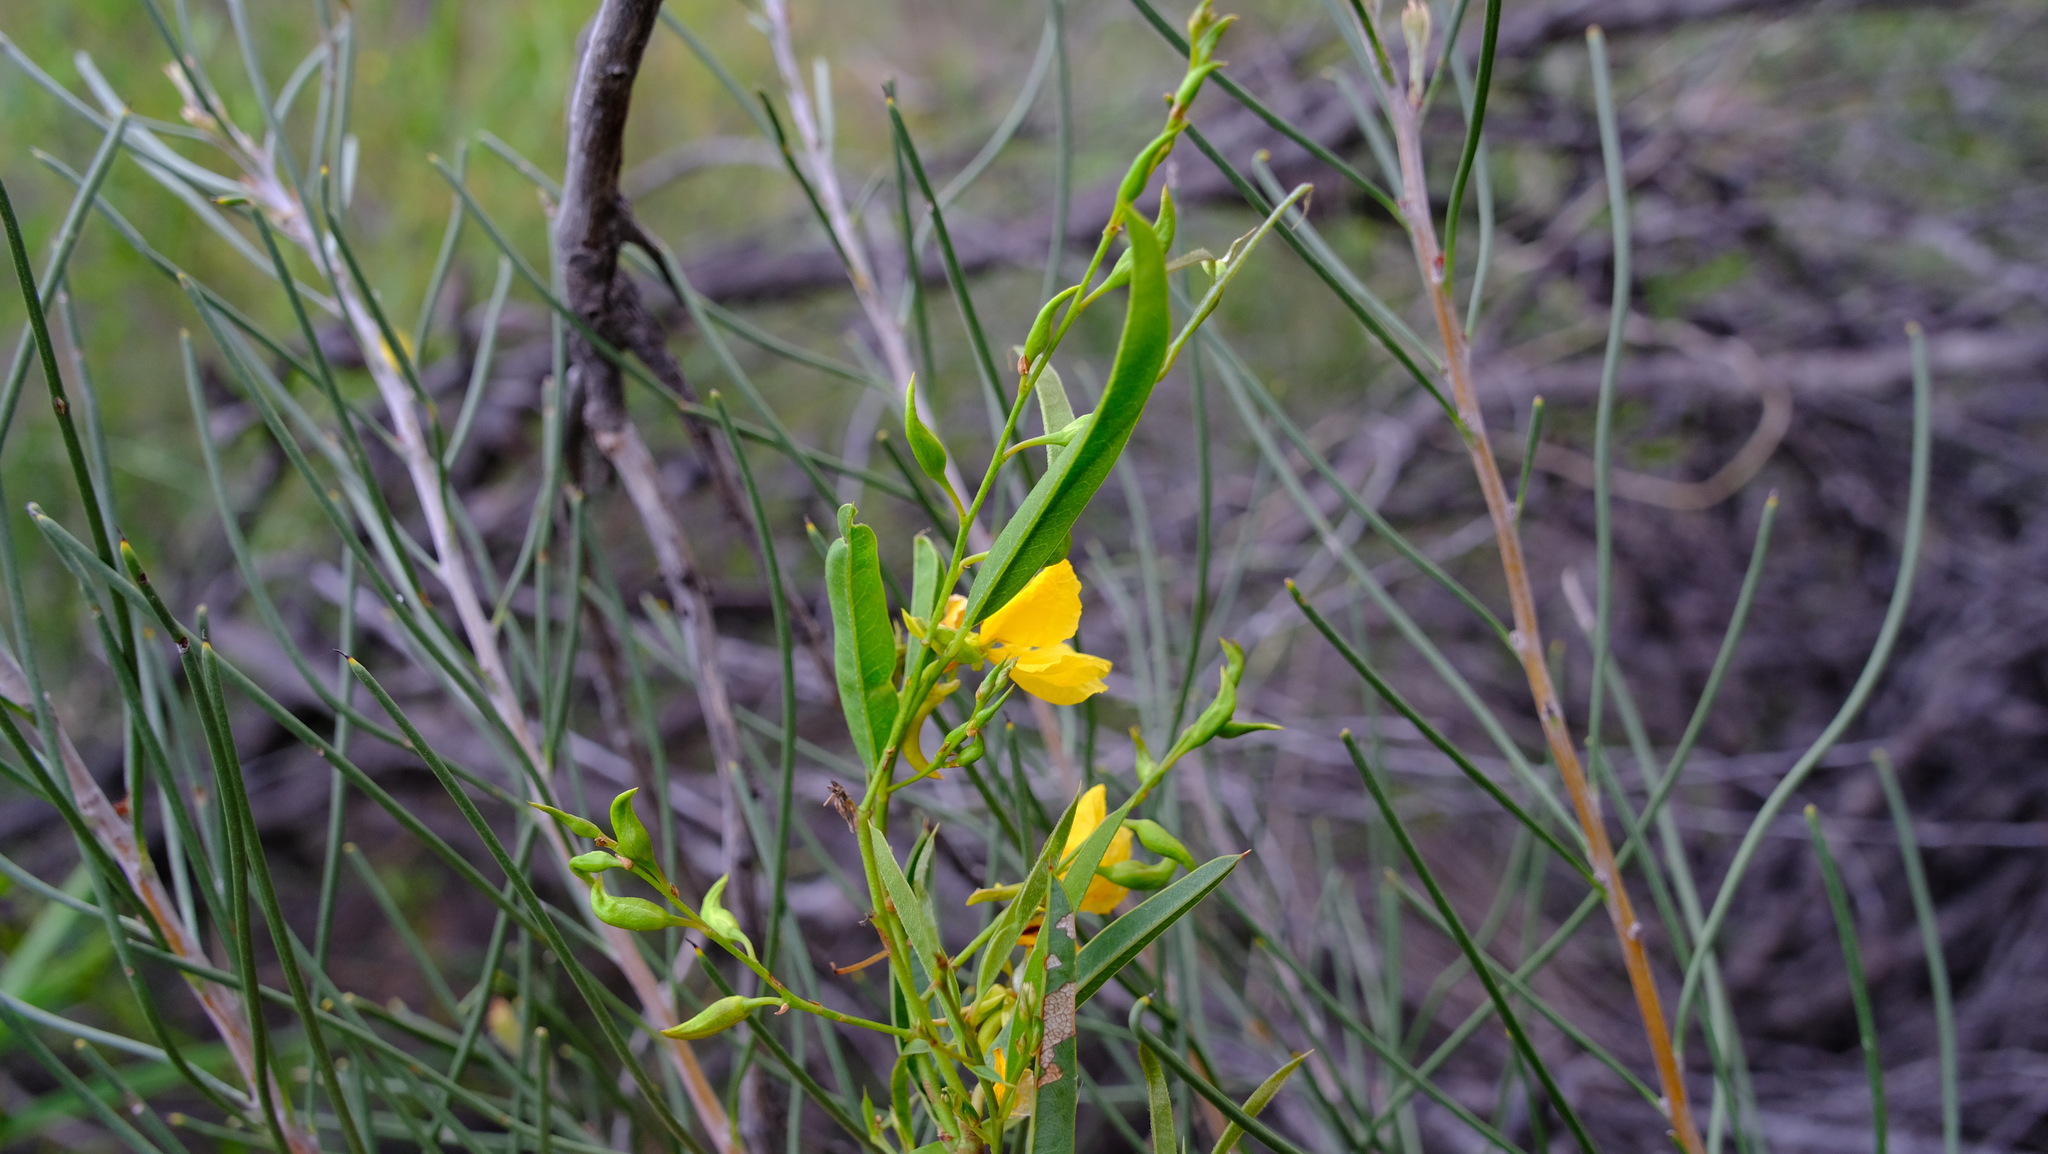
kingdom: Plantae
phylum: Tracheophyta
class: Magnoliopsida
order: Fabales
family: Fabaceae
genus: Labichea
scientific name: Labichea lanceolata
